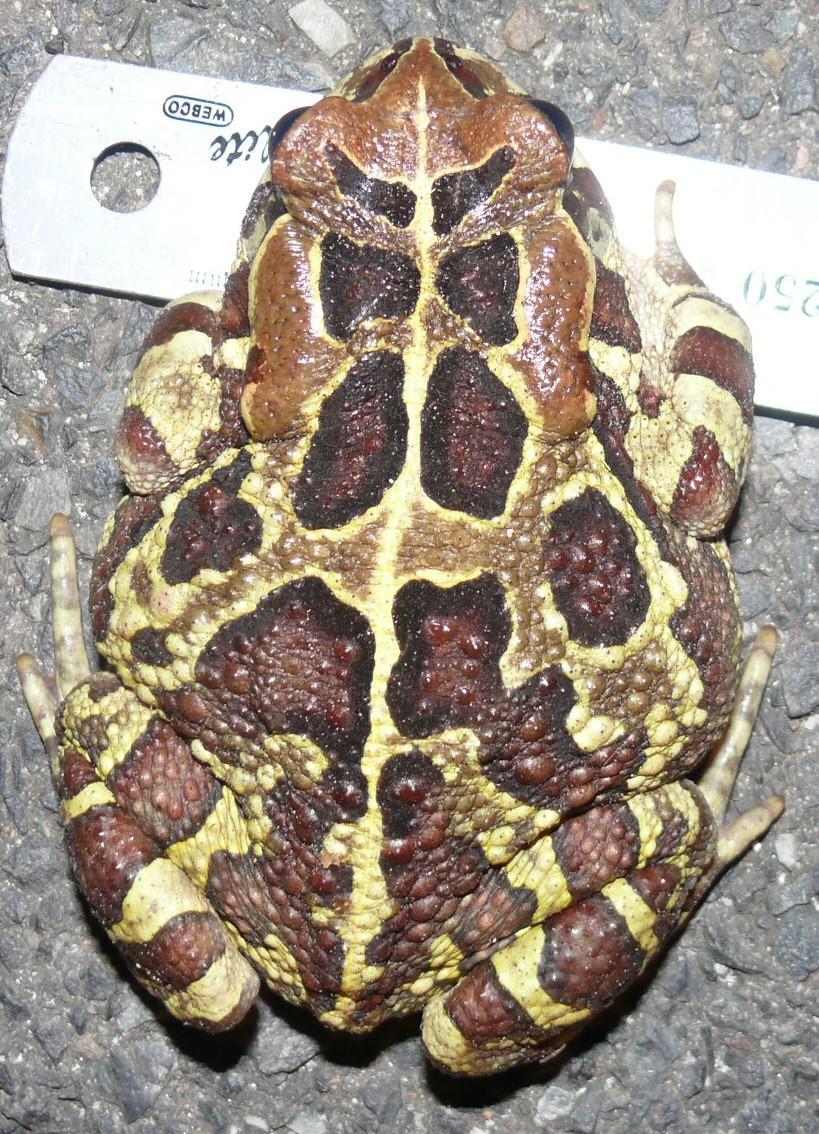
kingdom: Animalia
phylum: Chordata
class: Amphibia
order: Anura
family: Bufonidae
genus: Sclerophrys
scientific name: Sclerophrys pantherina
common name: Panther toad
